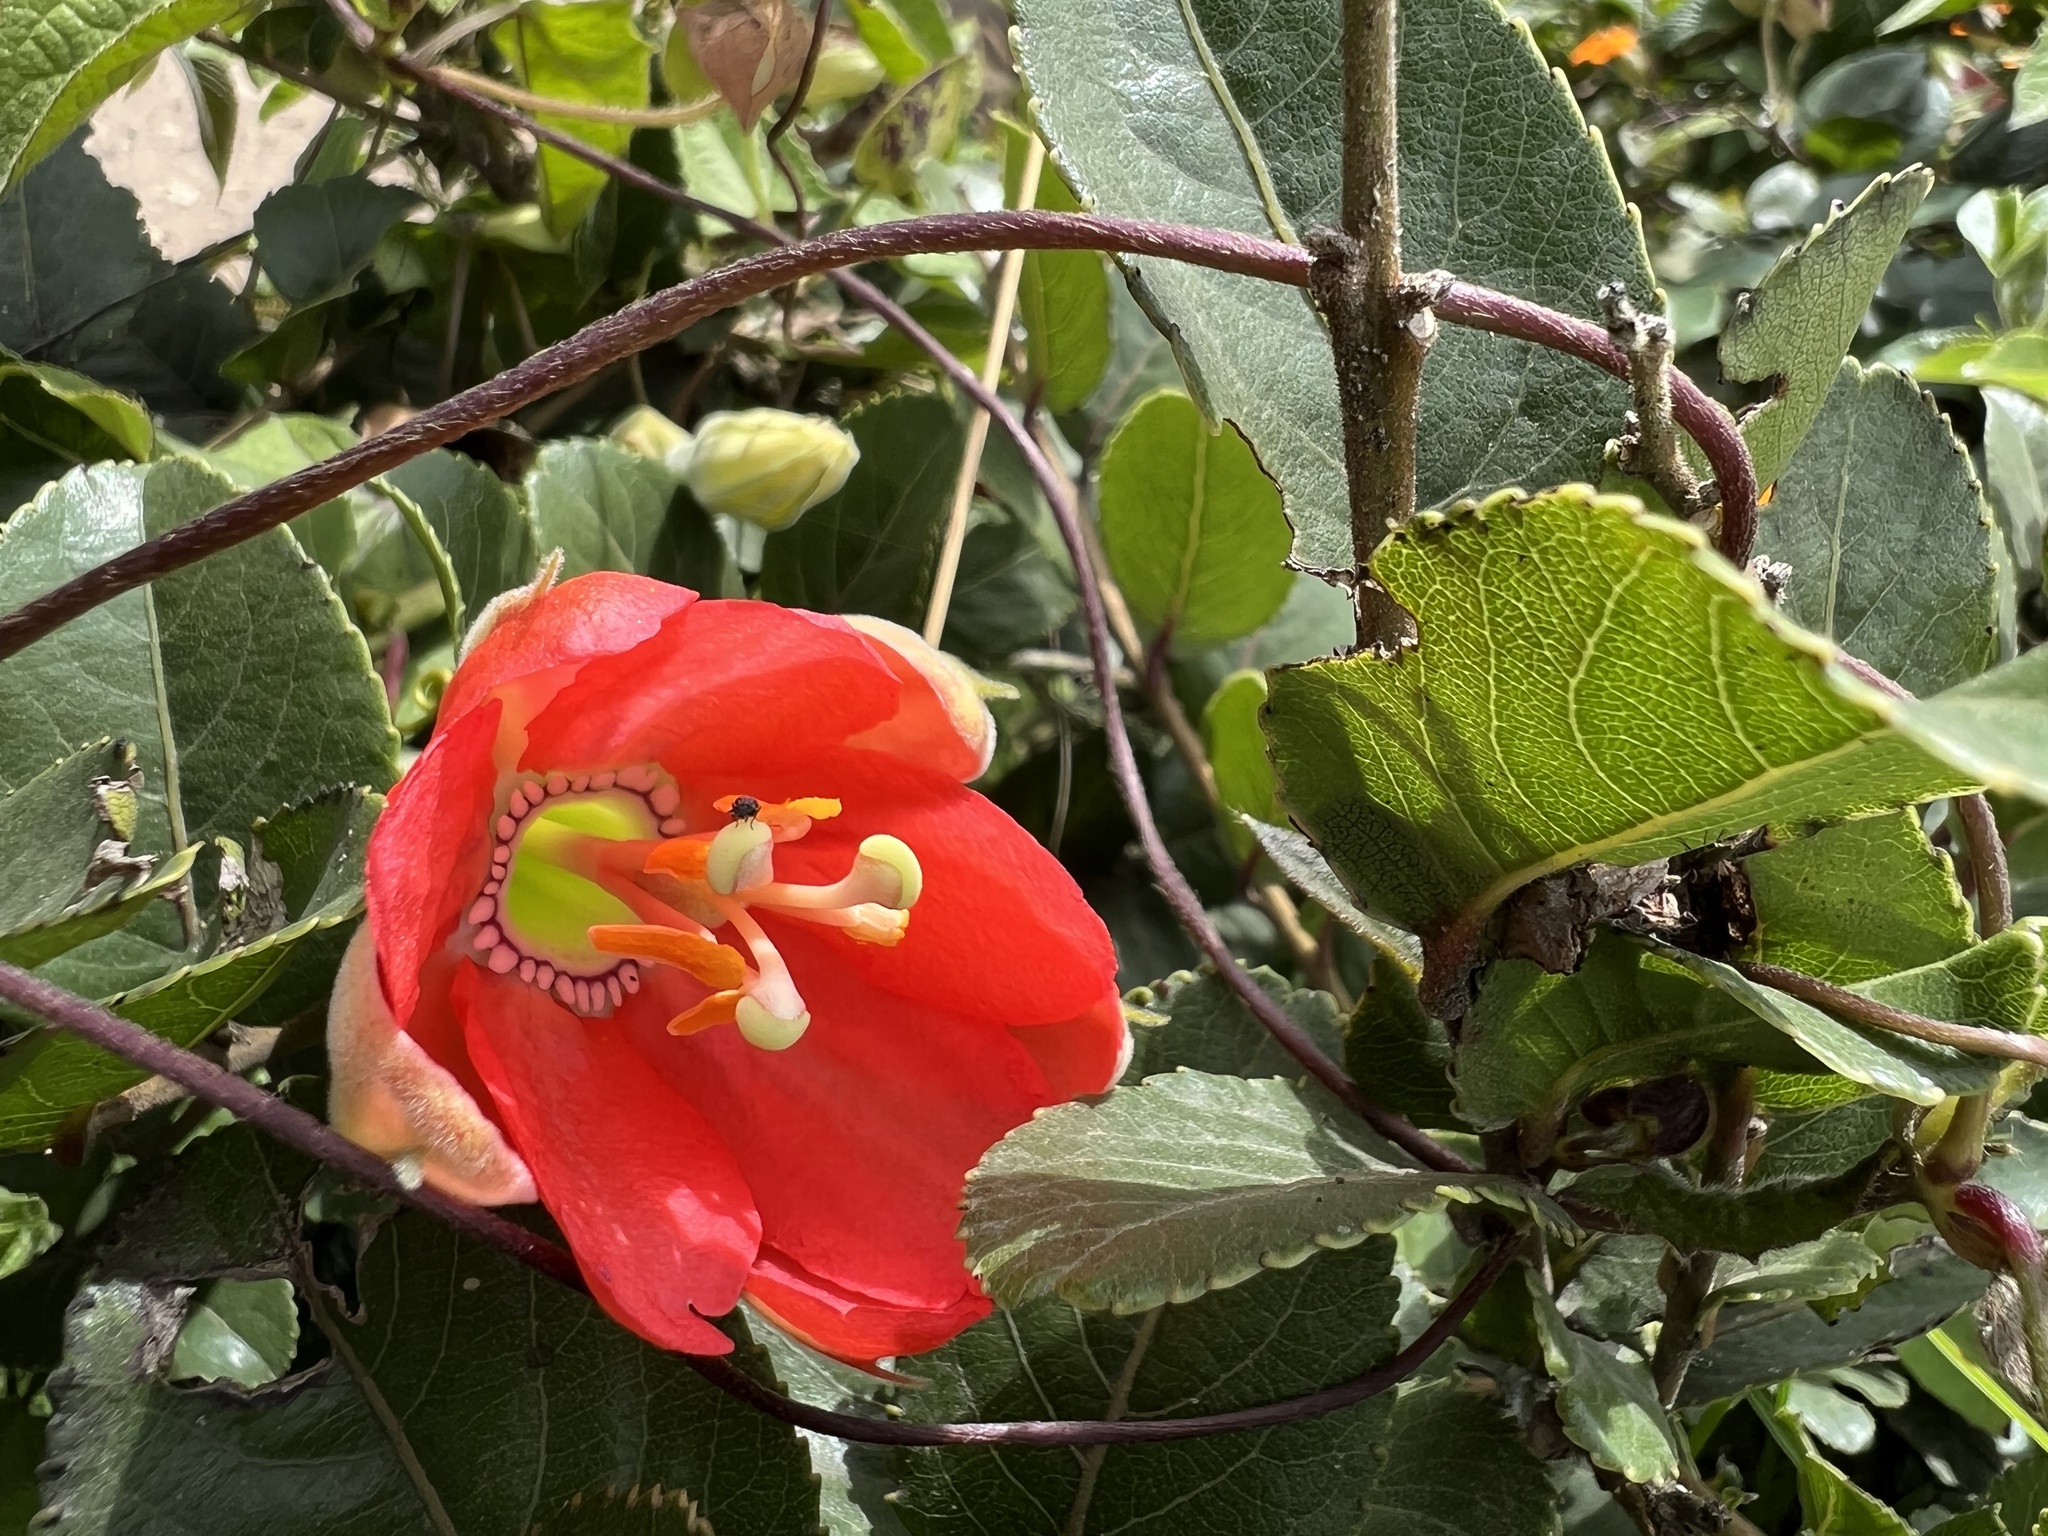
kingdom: Plantae
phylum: Tracheophyta
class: Magnoliopsida
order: Malpighiales
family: Passifloraceae
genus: Passiflora
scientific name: Passiflora mixta
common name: Passion flower
